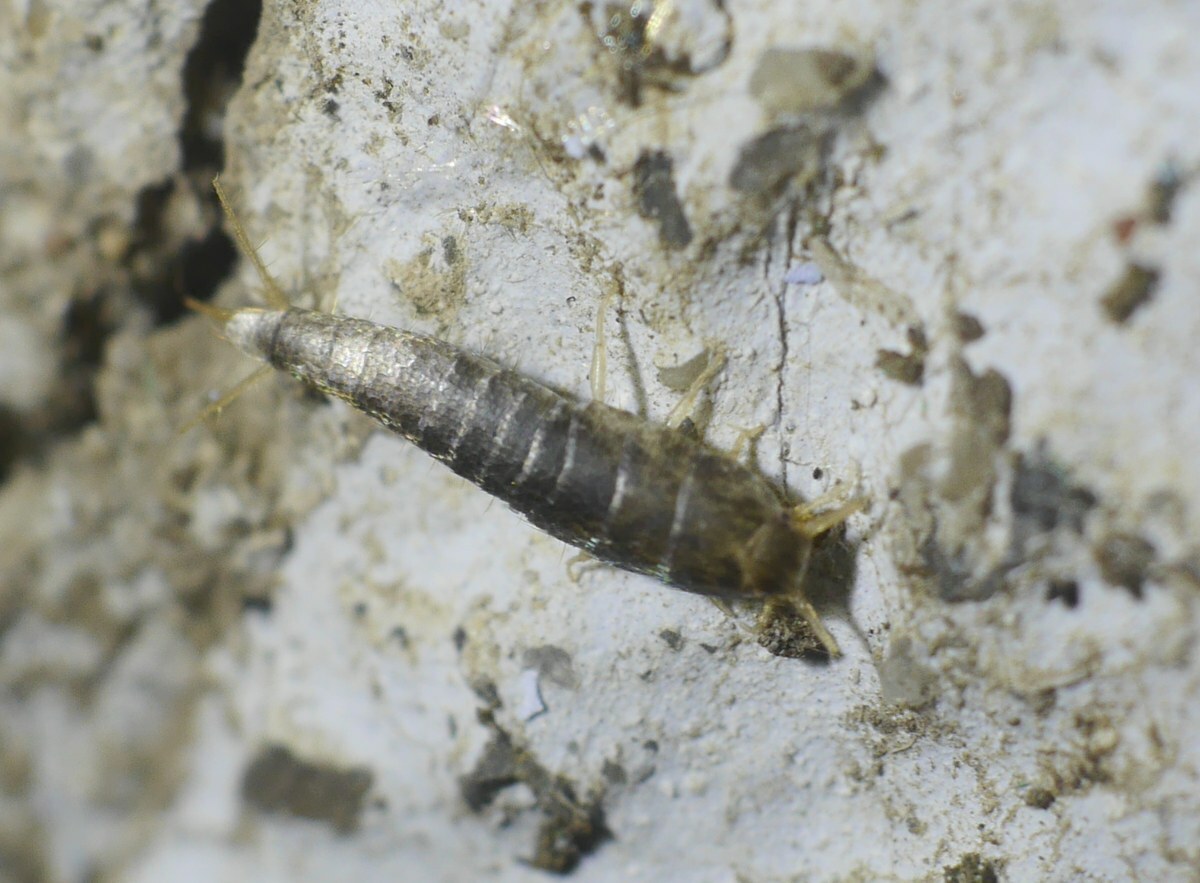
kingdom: Animalia
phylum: Arthropoda
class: Insecta
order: Zygentoma
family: Lepismatidae
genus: Lepisma
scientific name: Lepisma saccharinum
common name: Silverfish
